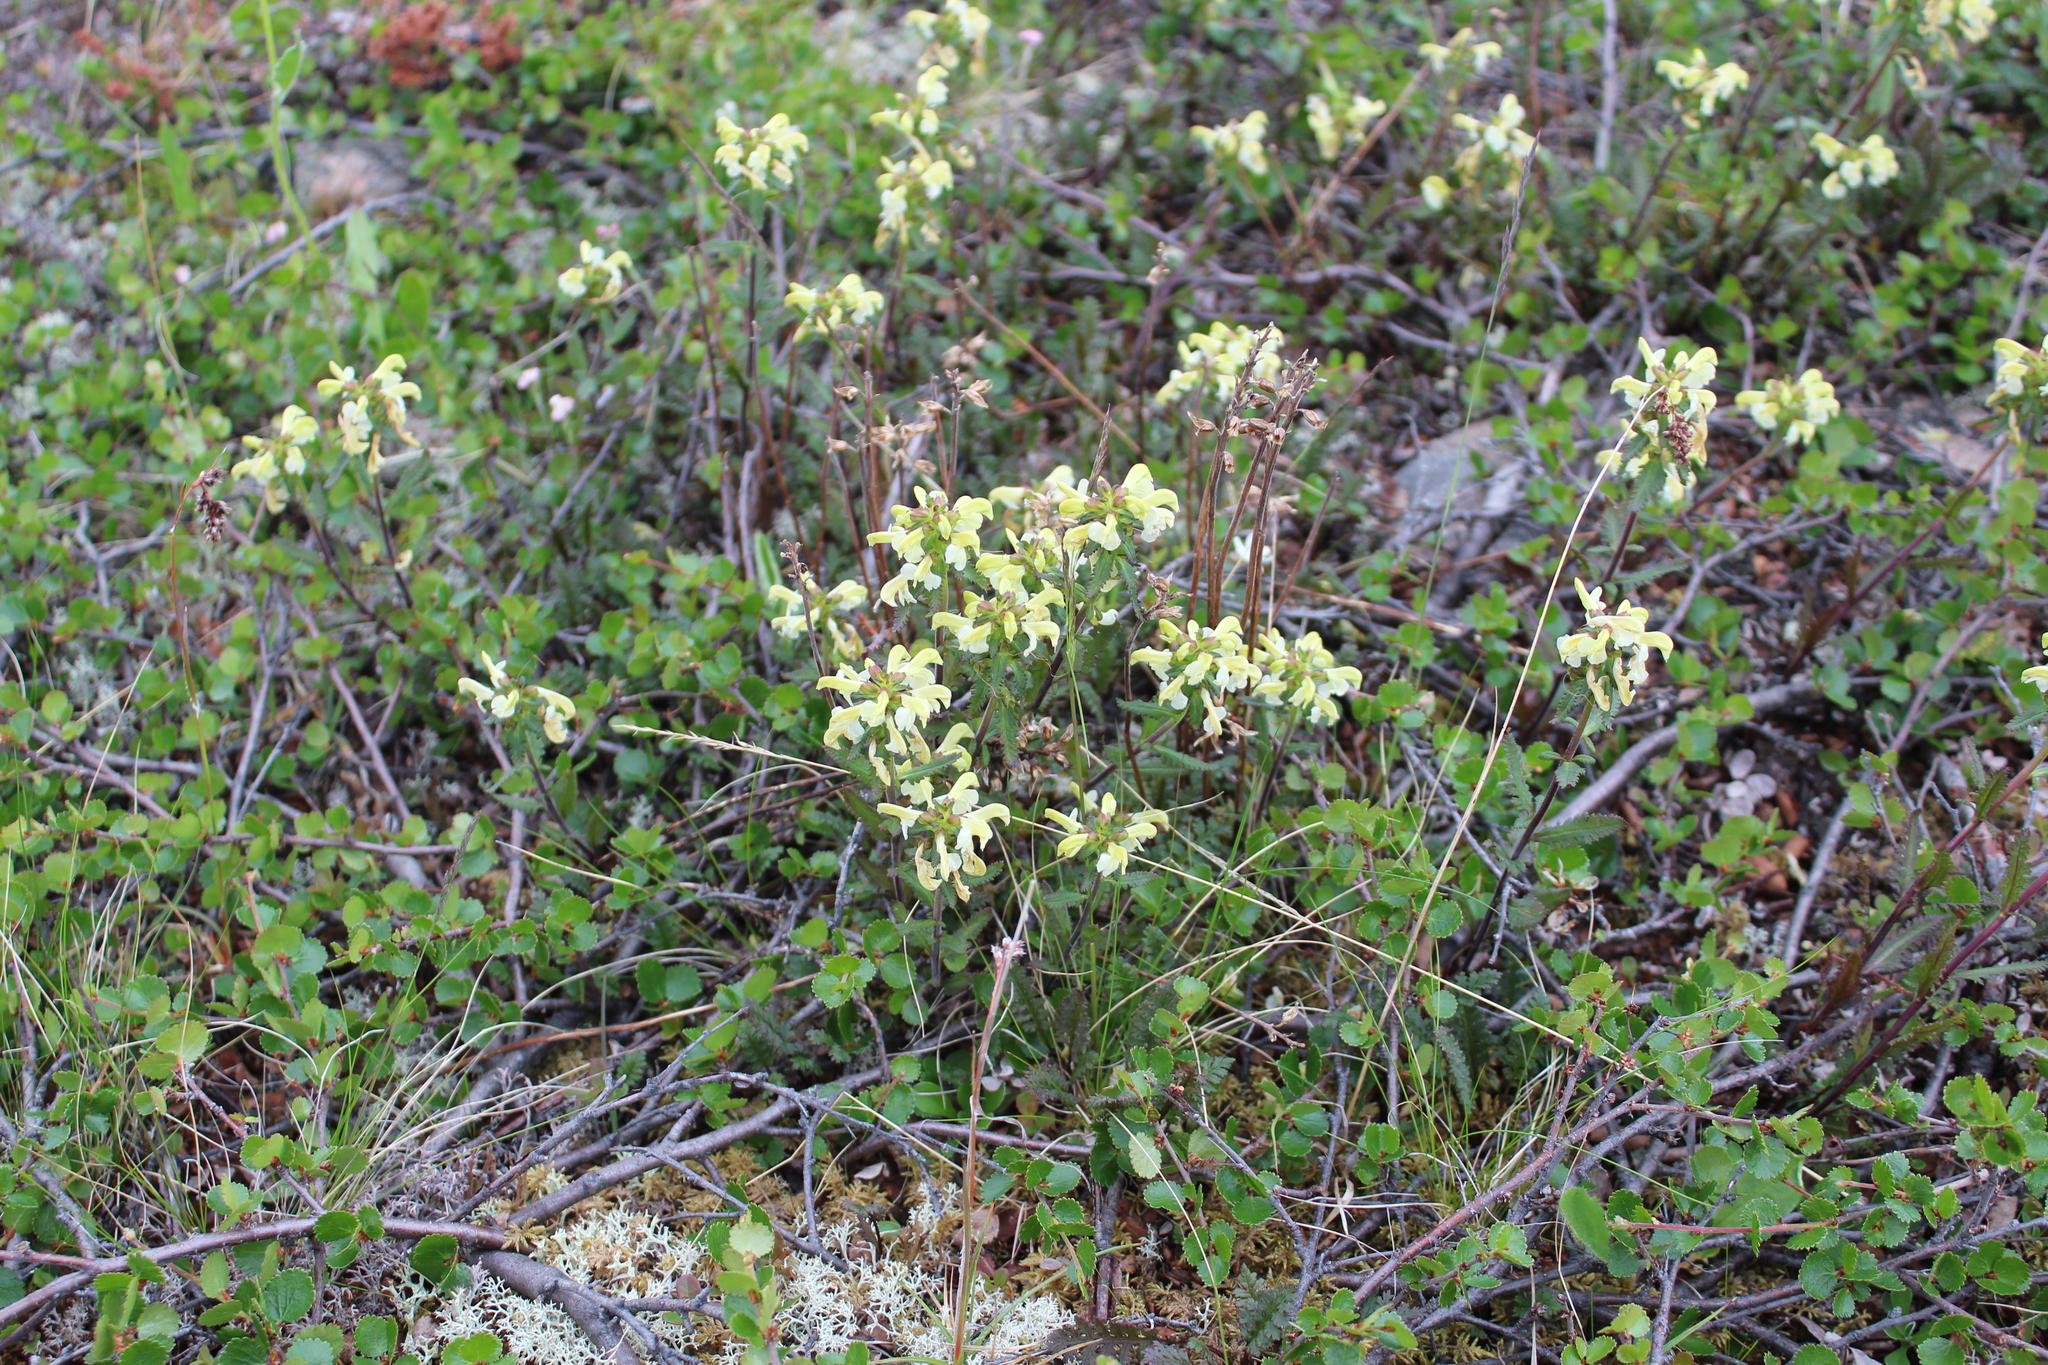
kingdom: Plantae
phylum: Tracheophyta
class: Magnoliopsida
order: Lamiales
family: Orobanchaceae
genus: Pedicularis
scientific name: Pedicularis lapponica
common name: Lapland lousewort
